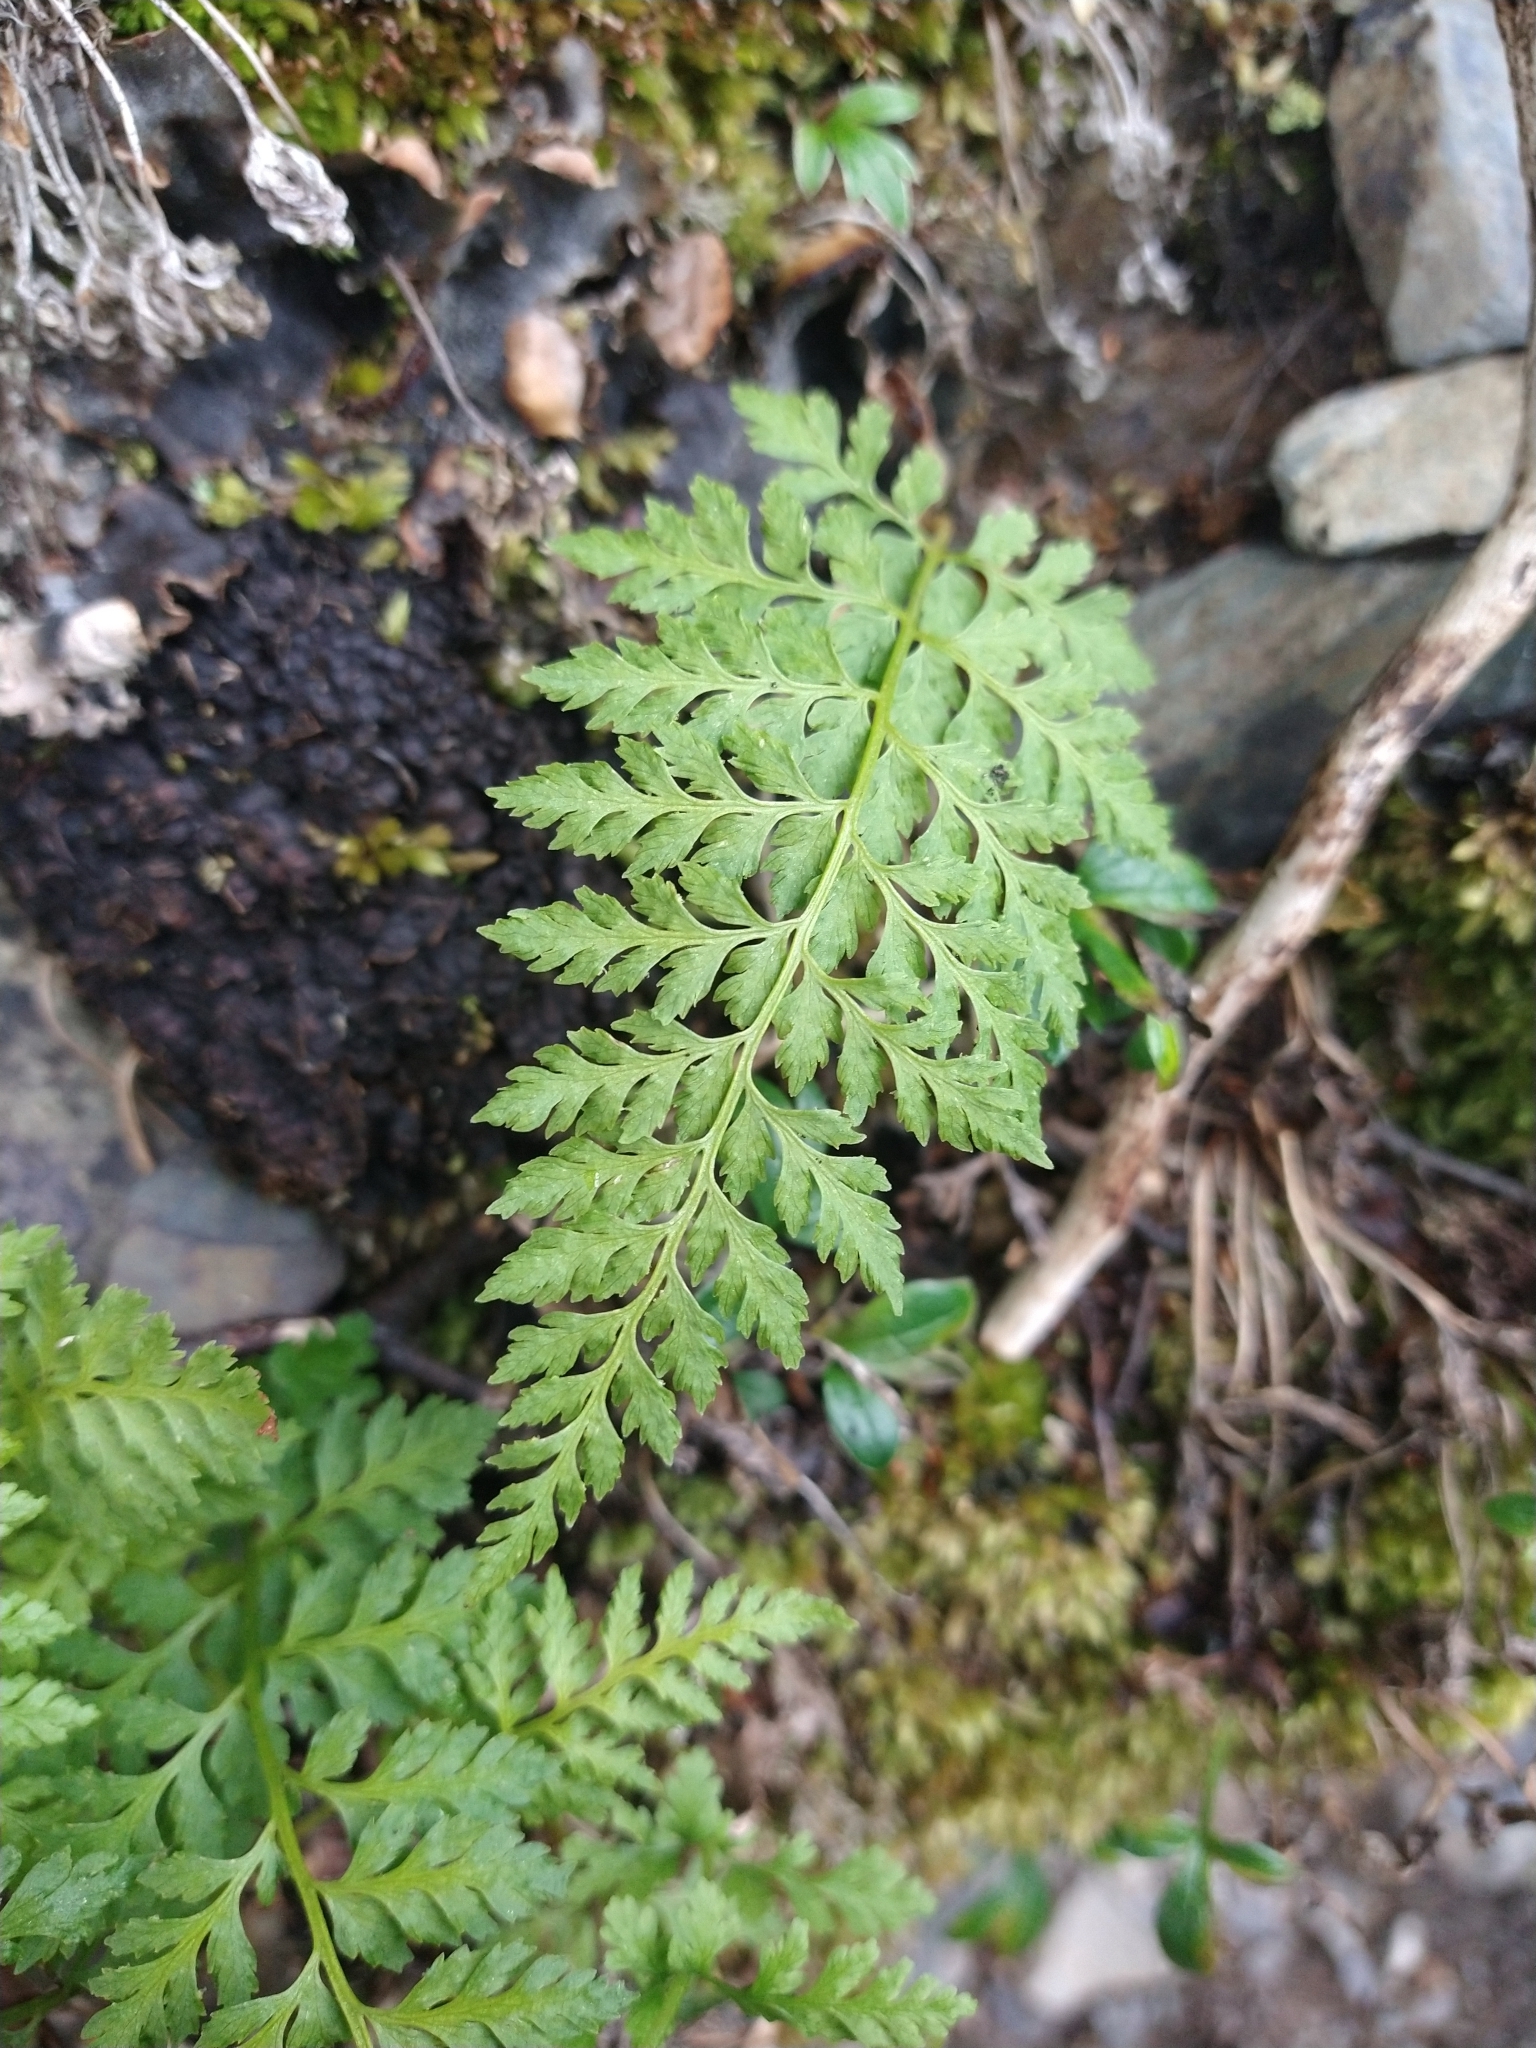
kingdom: Plantae
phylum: Tracheophyta
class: Polypodiopsida
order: Polypodiales
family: Cystopteridaceae
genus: Cystopteris
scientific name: Cystopteris fragilis
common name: Brittle bladder fern
